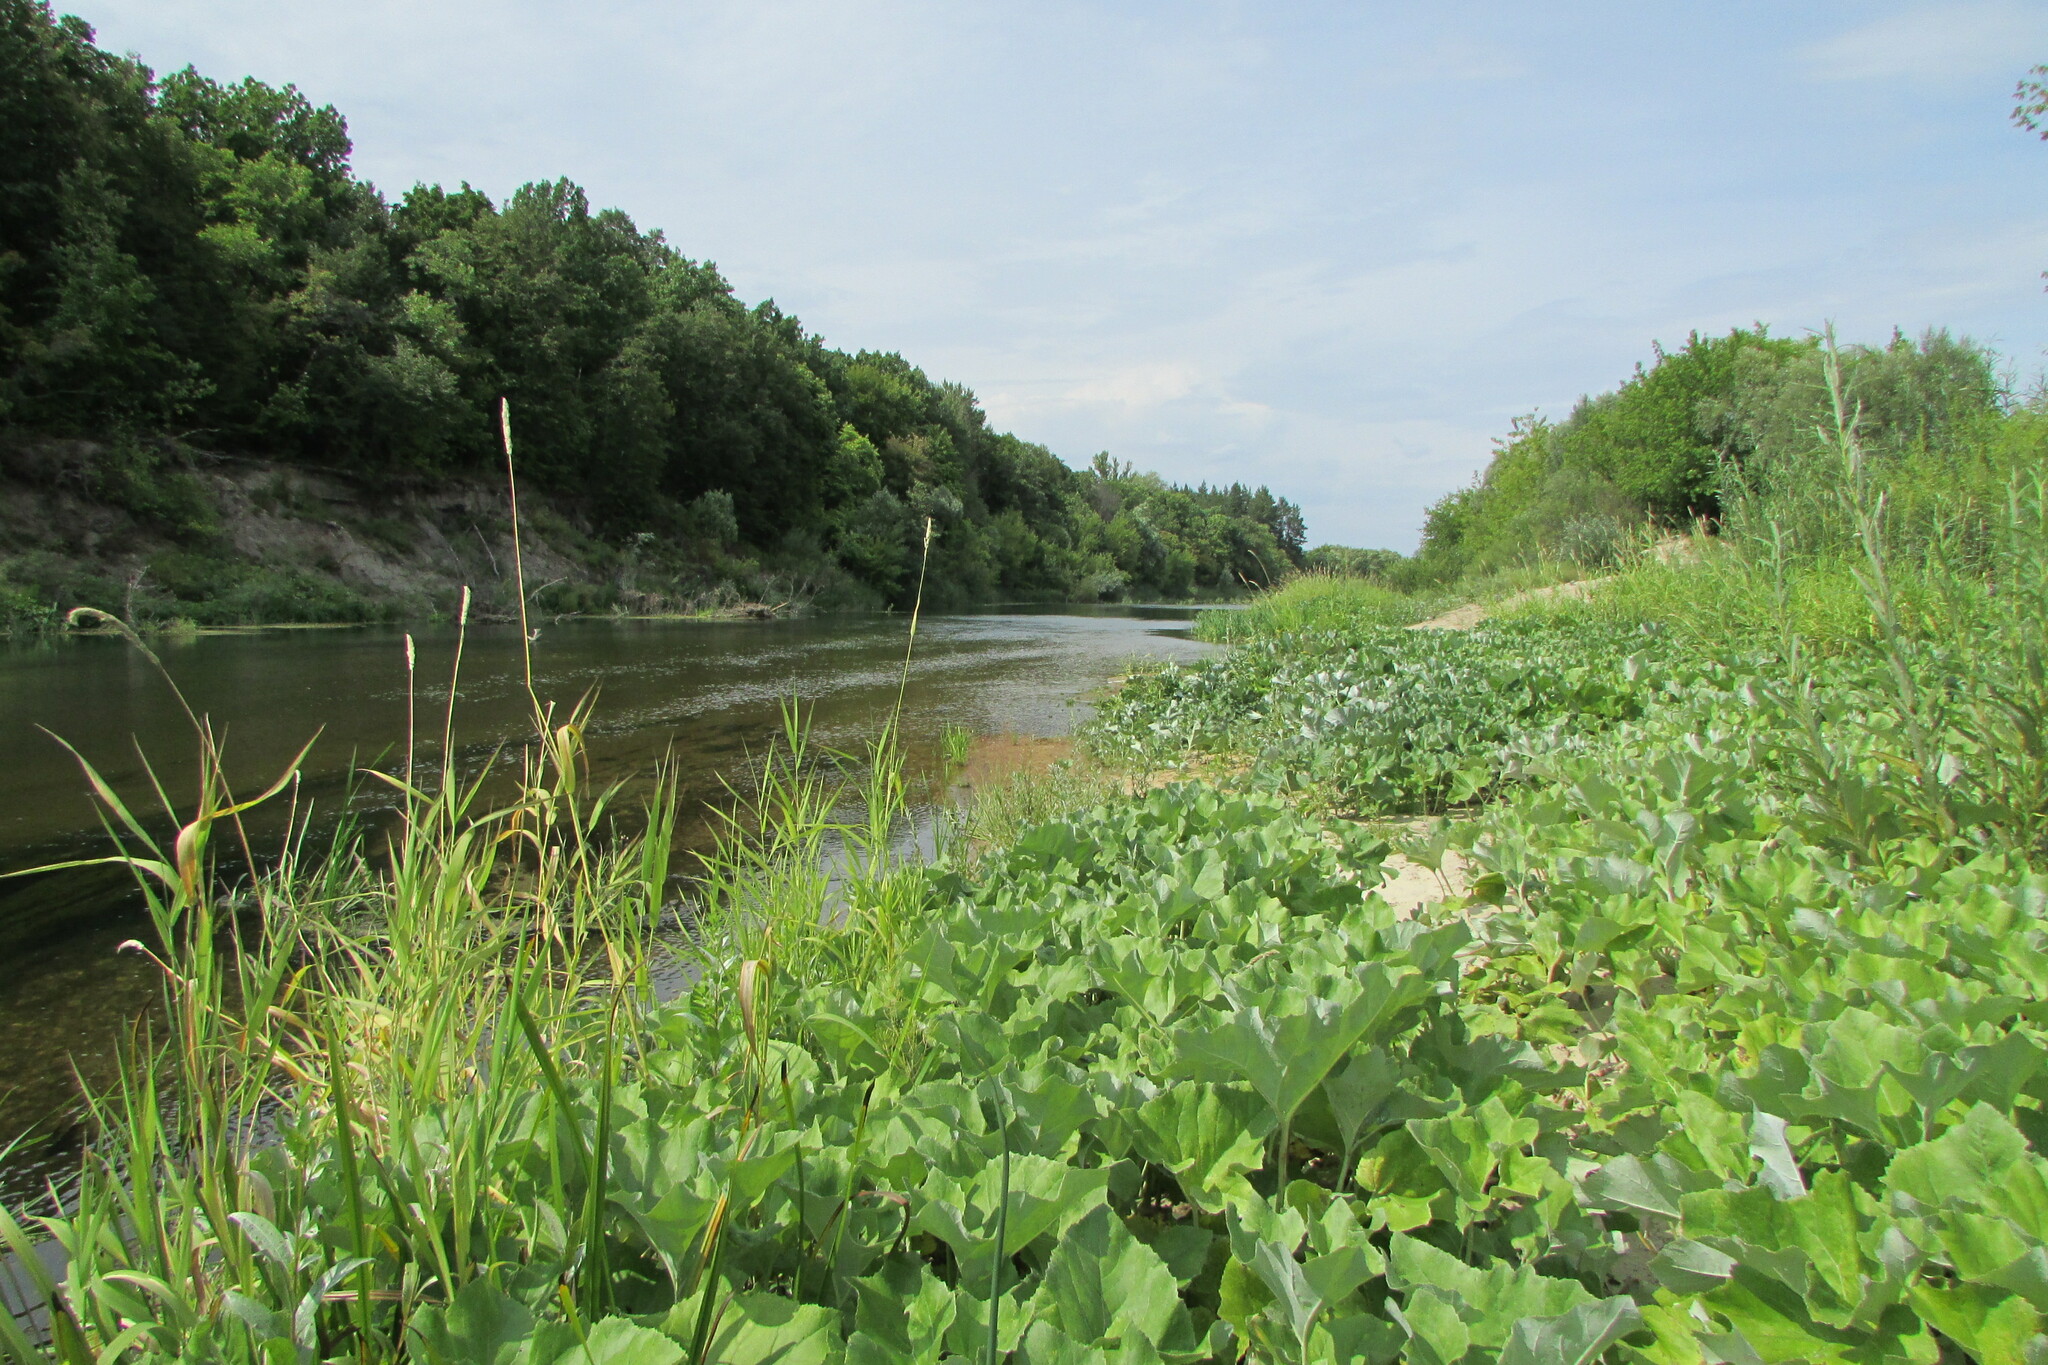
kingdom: Plantae
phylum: Tracheophyta
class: Magnoliopsida
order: Asterales
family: Asteraceae
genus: Petasites
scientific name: Petasites spurius
